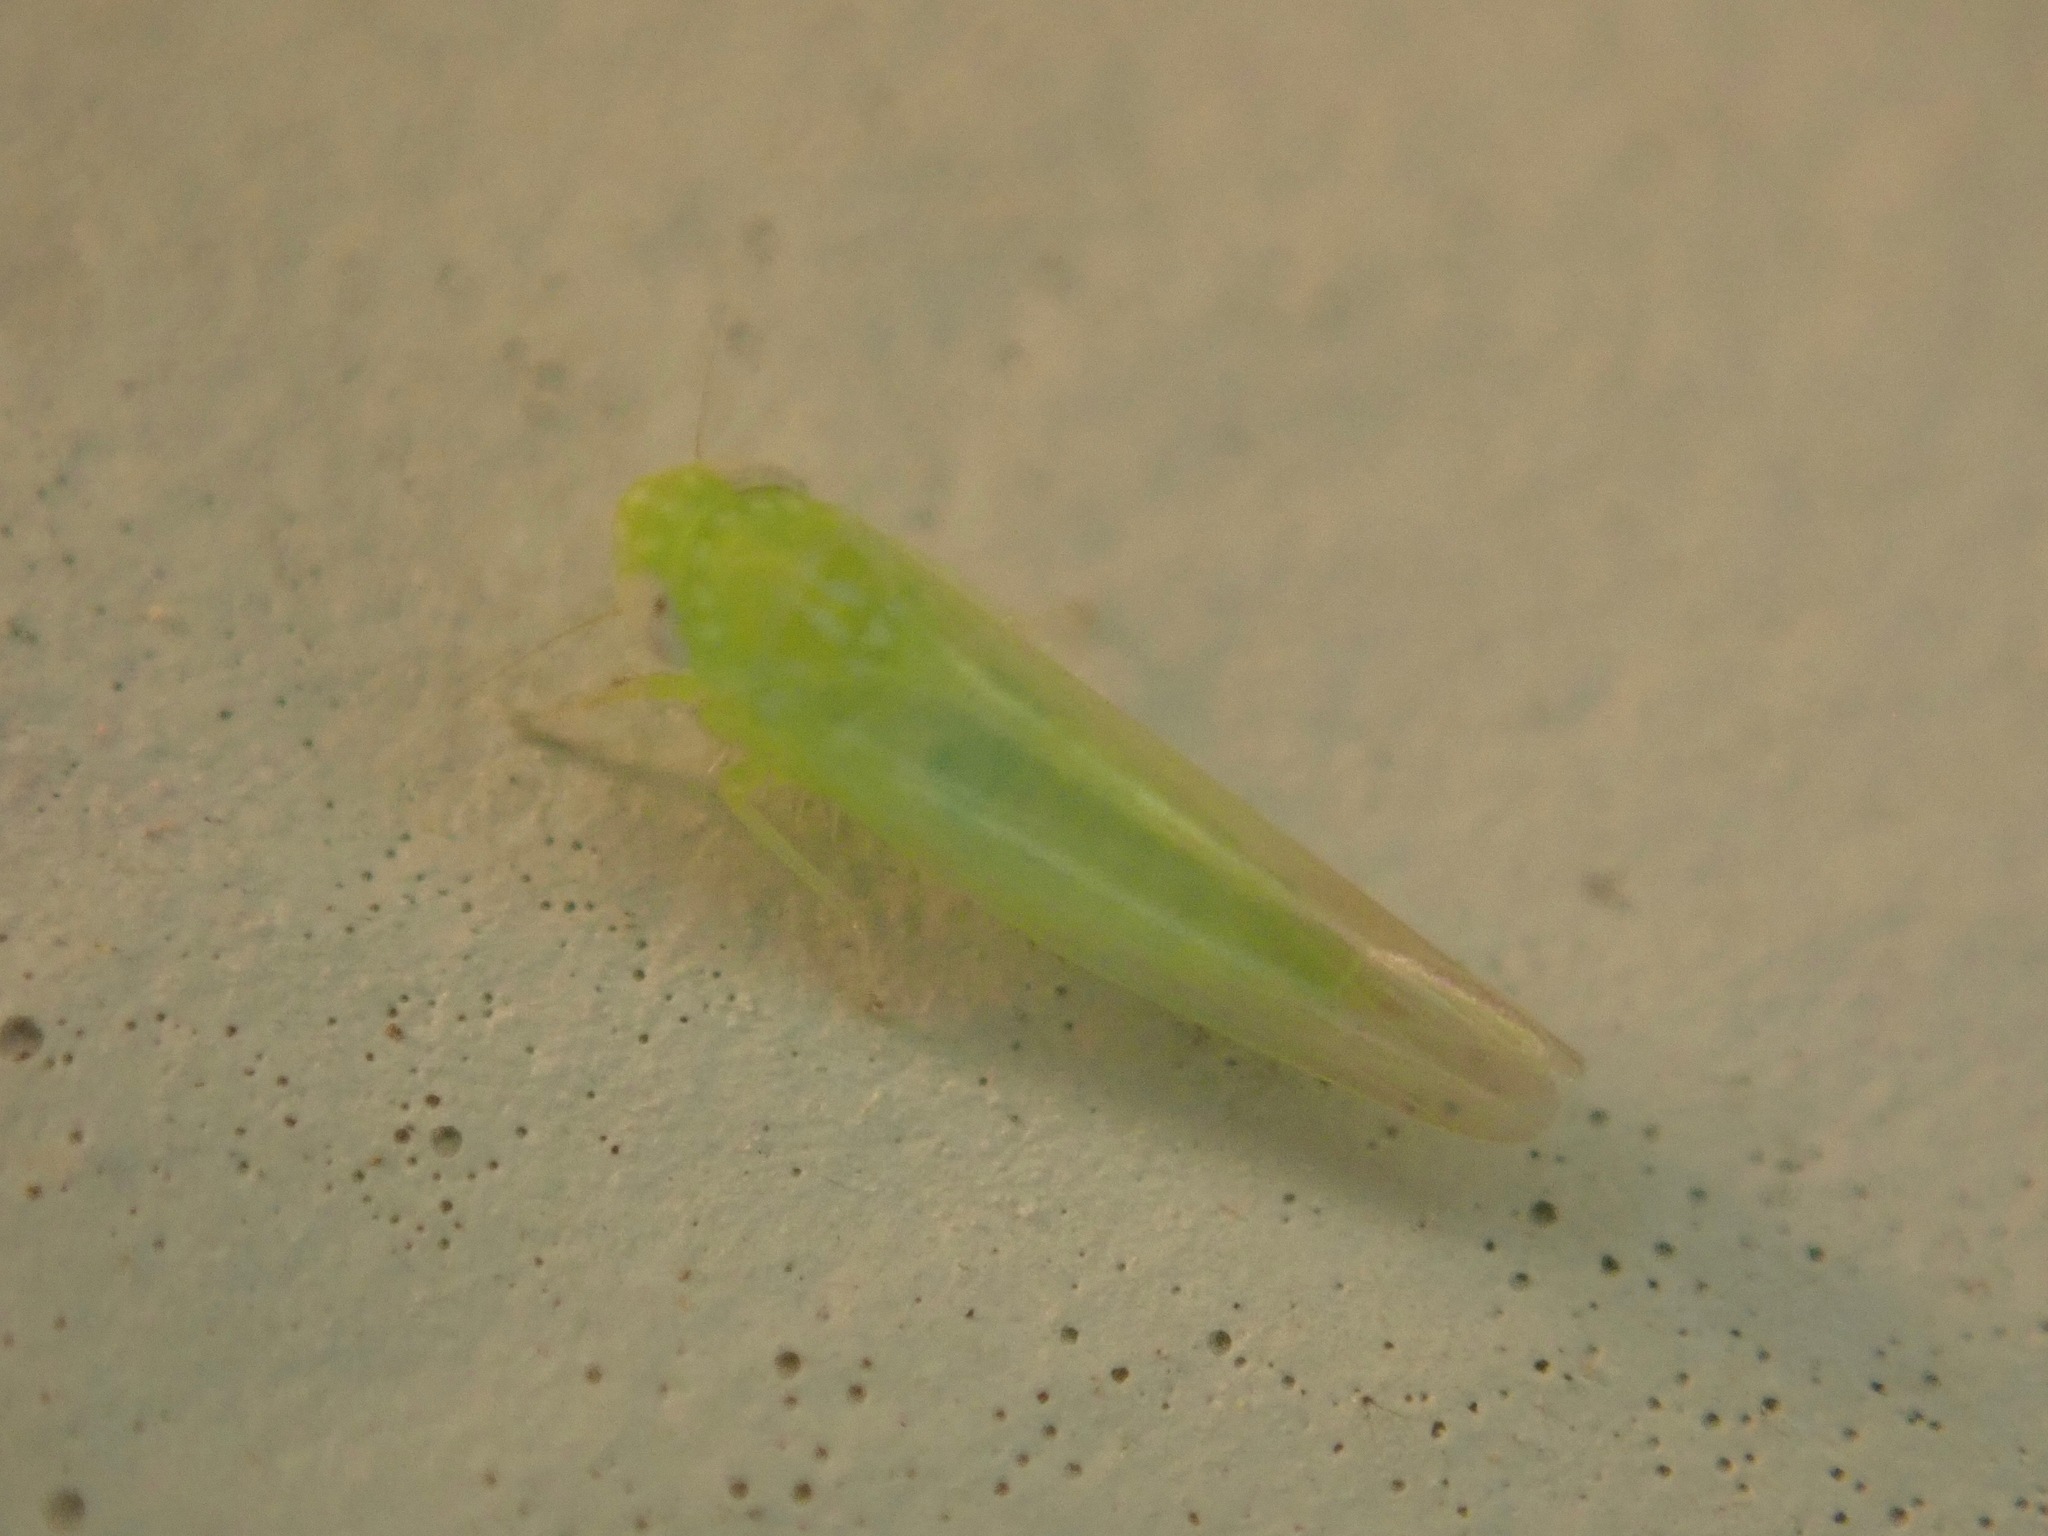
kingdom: Animalia
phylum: Arthropoda
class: Insecta
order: Hemiptera
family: Cicadellidae
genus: Empoasca
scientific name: Empoasca fabae
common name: Potato leafhopper
